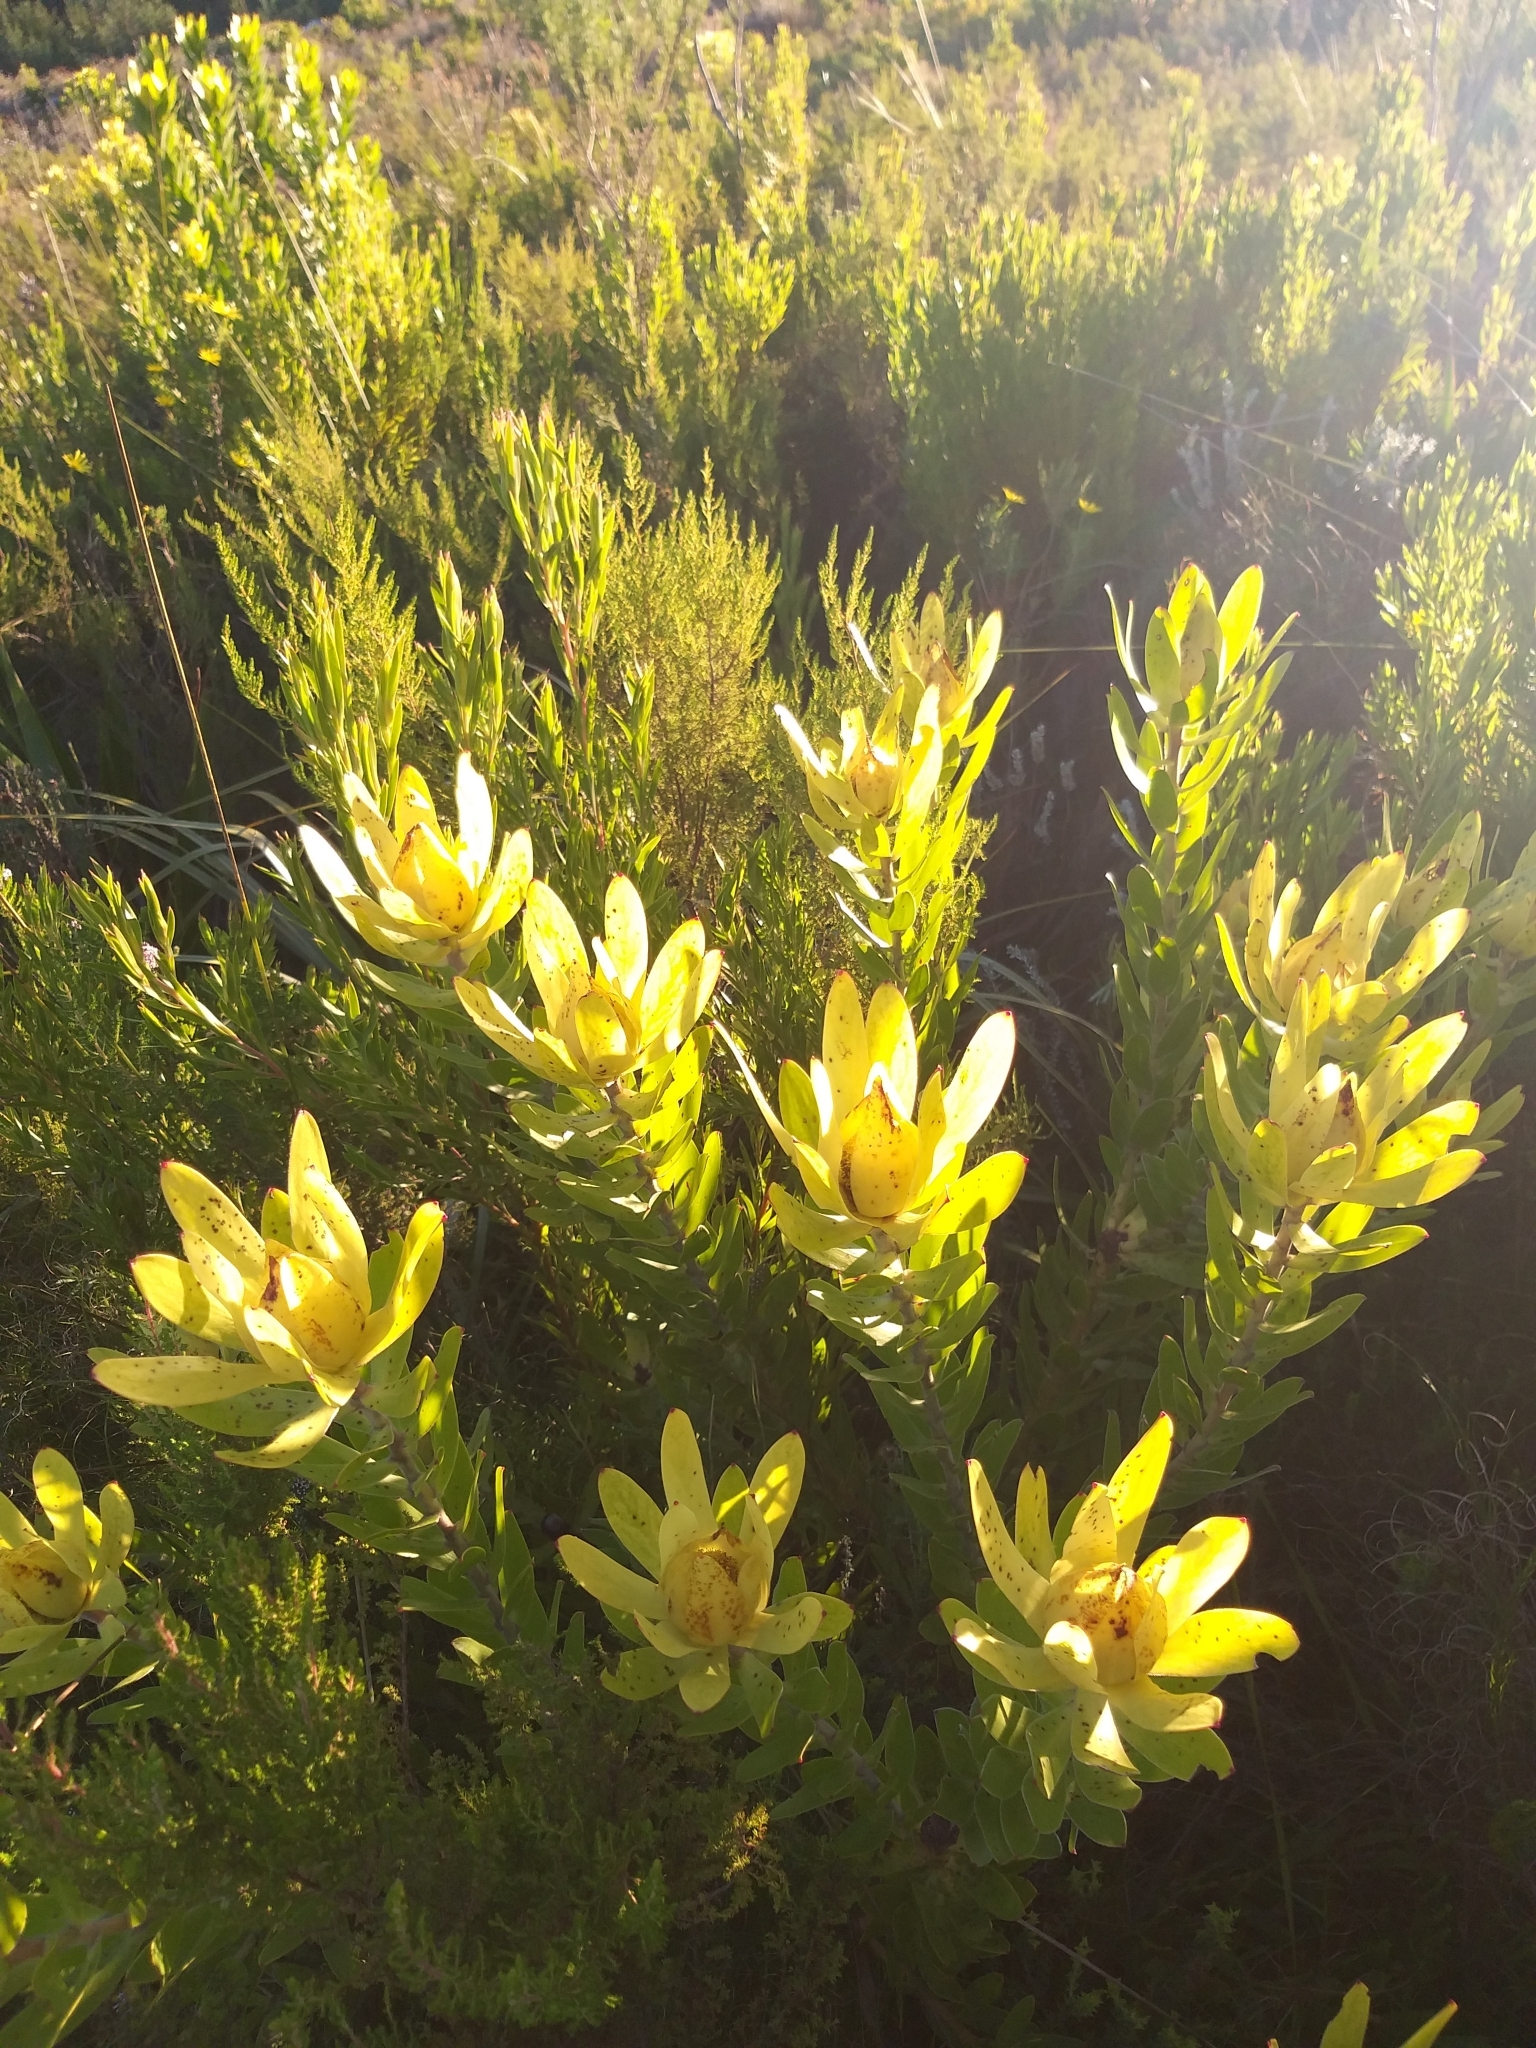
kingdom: Plantae
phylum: Tracheophyta
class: Magnoliopsida
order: Proteales
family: Proteaceae
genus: Leucadendron
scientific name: Leucadendron laureolum
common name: Golden sunshinebush
